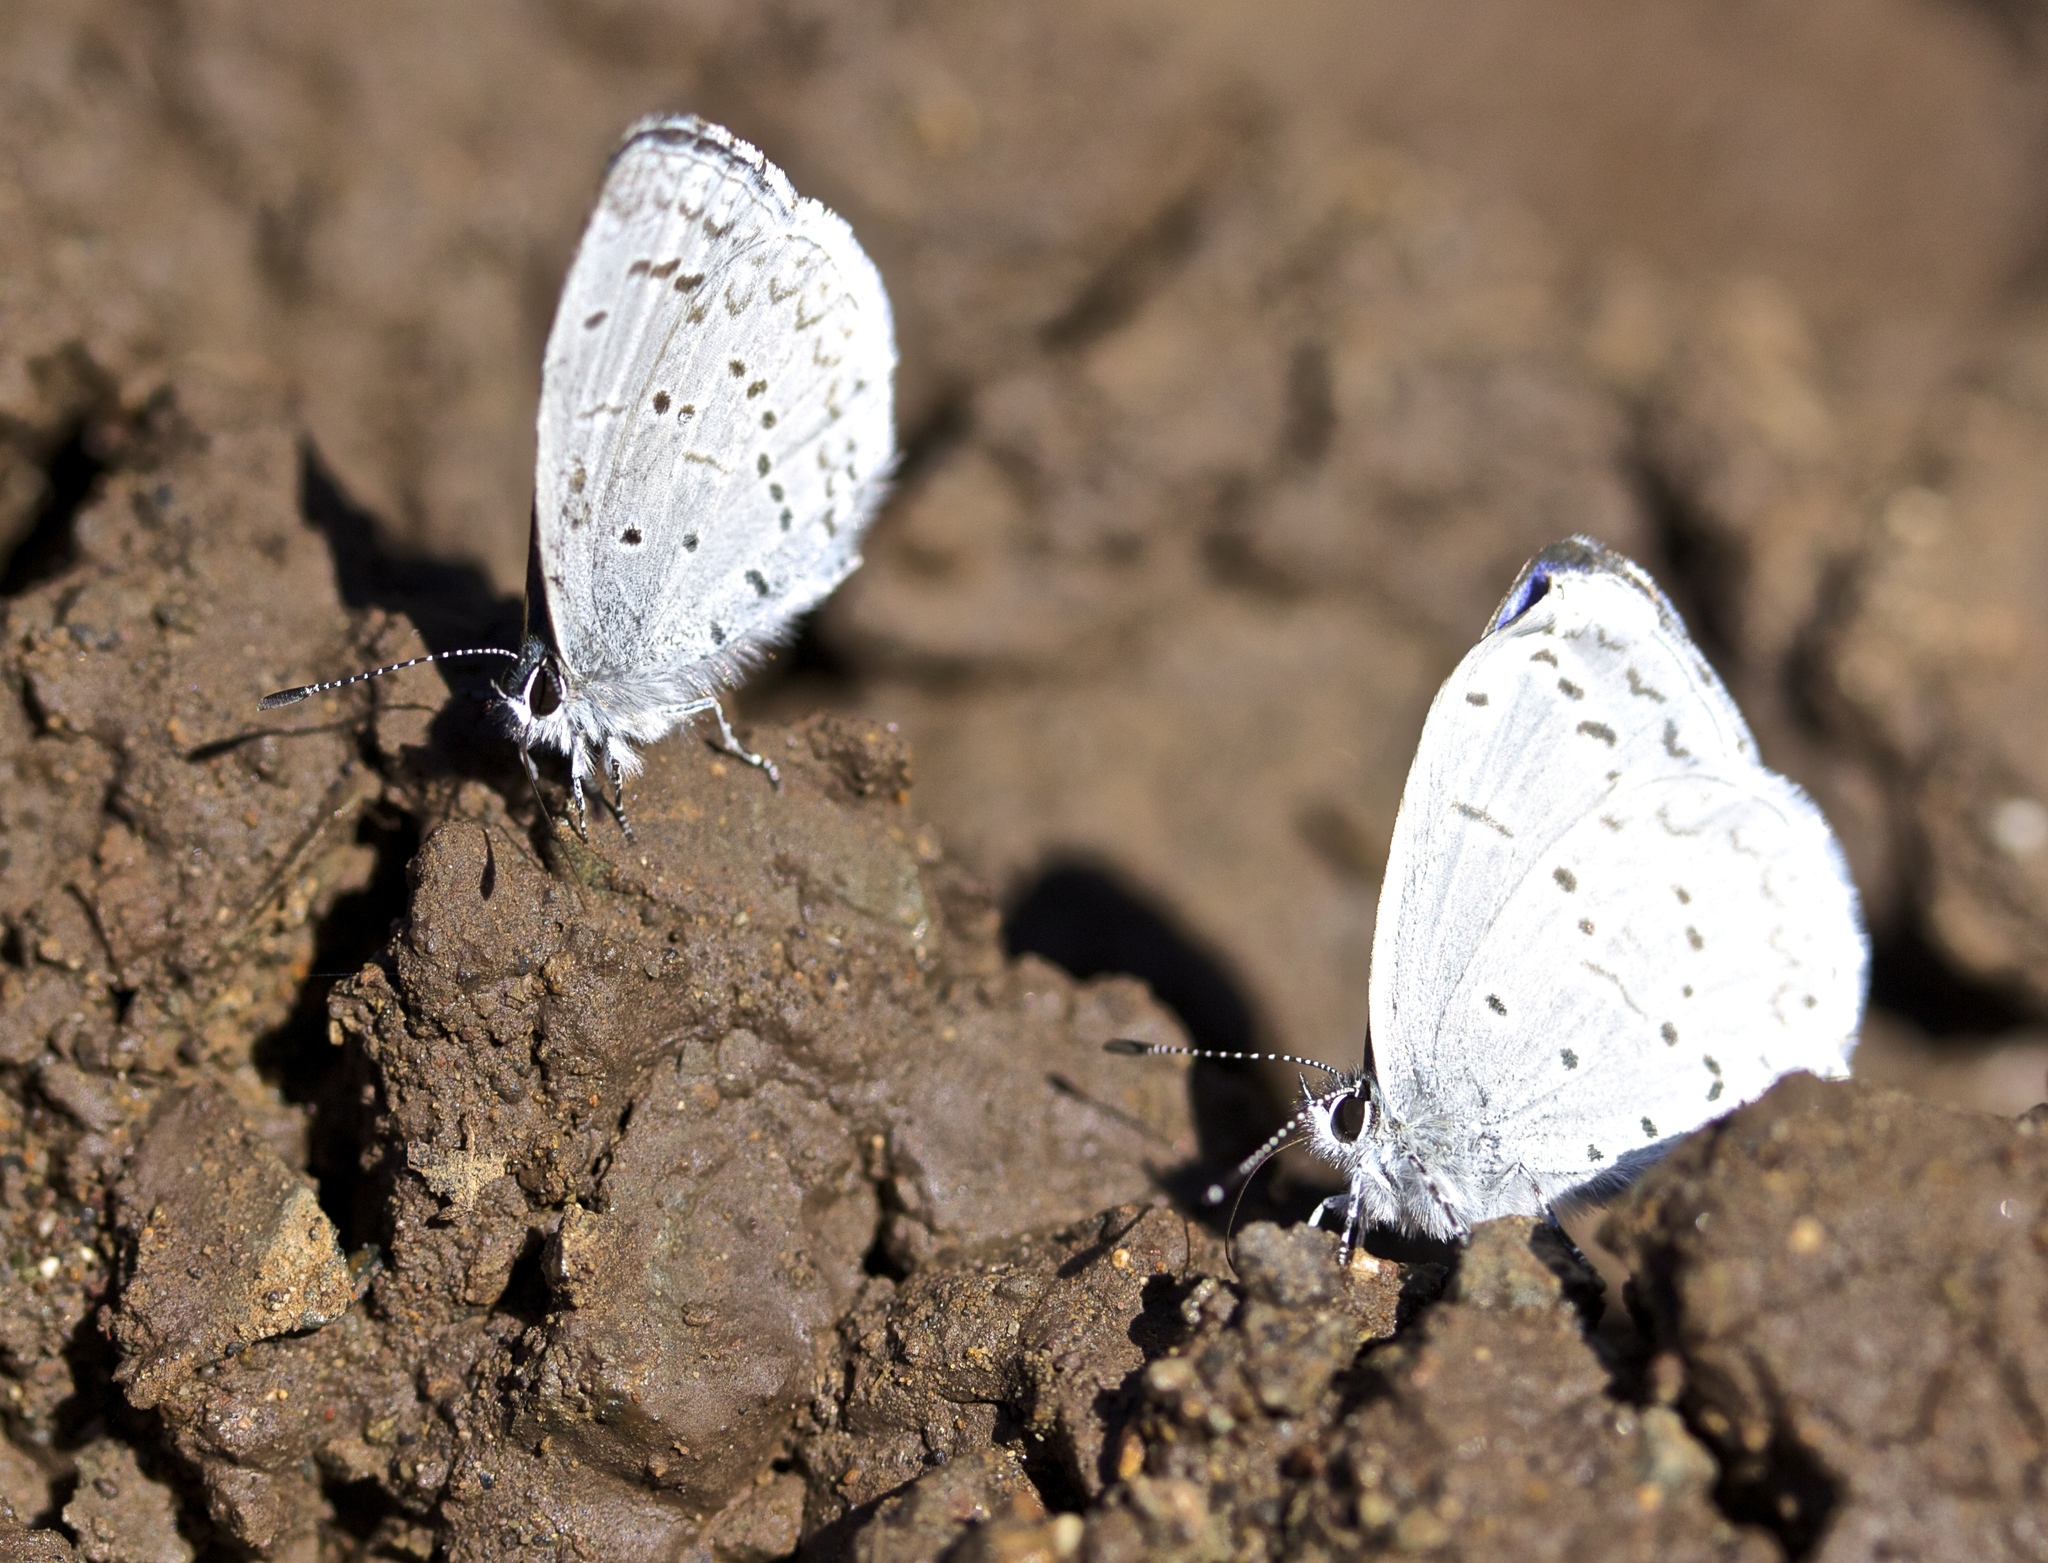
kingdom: Animalia
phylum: Arthropoda
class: Insecta
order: Lepidoptera
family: Lycaenidae
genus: Celastrina
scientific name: Celastrina ladon
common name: Spring azure
